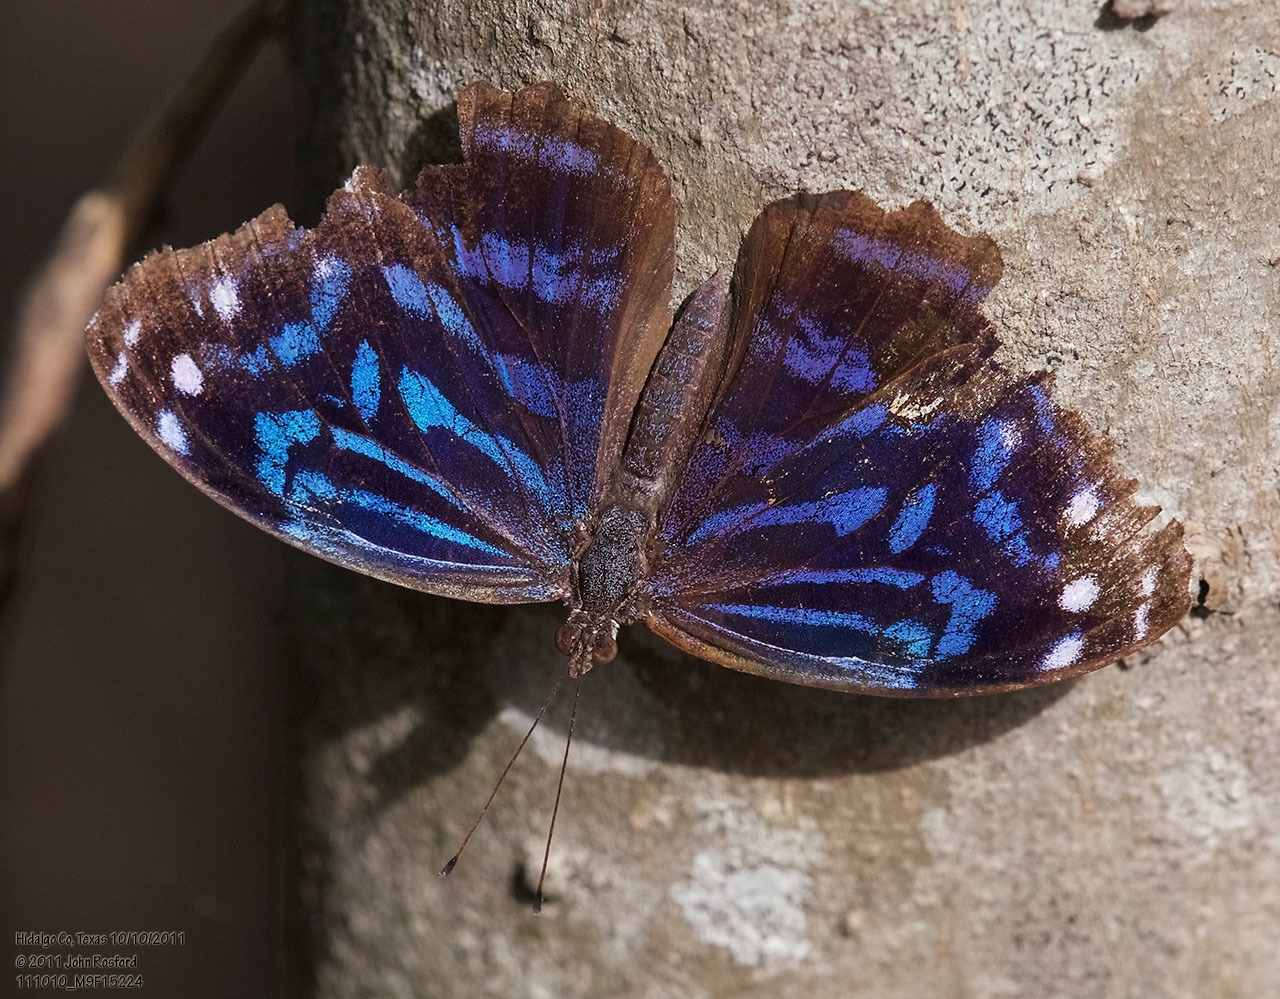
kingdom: Animalia
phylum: Arthropoda
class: Insecta
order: Lepidoptera
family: Nymphalidae
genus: Myscelia
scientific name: Myscelia ethusa
